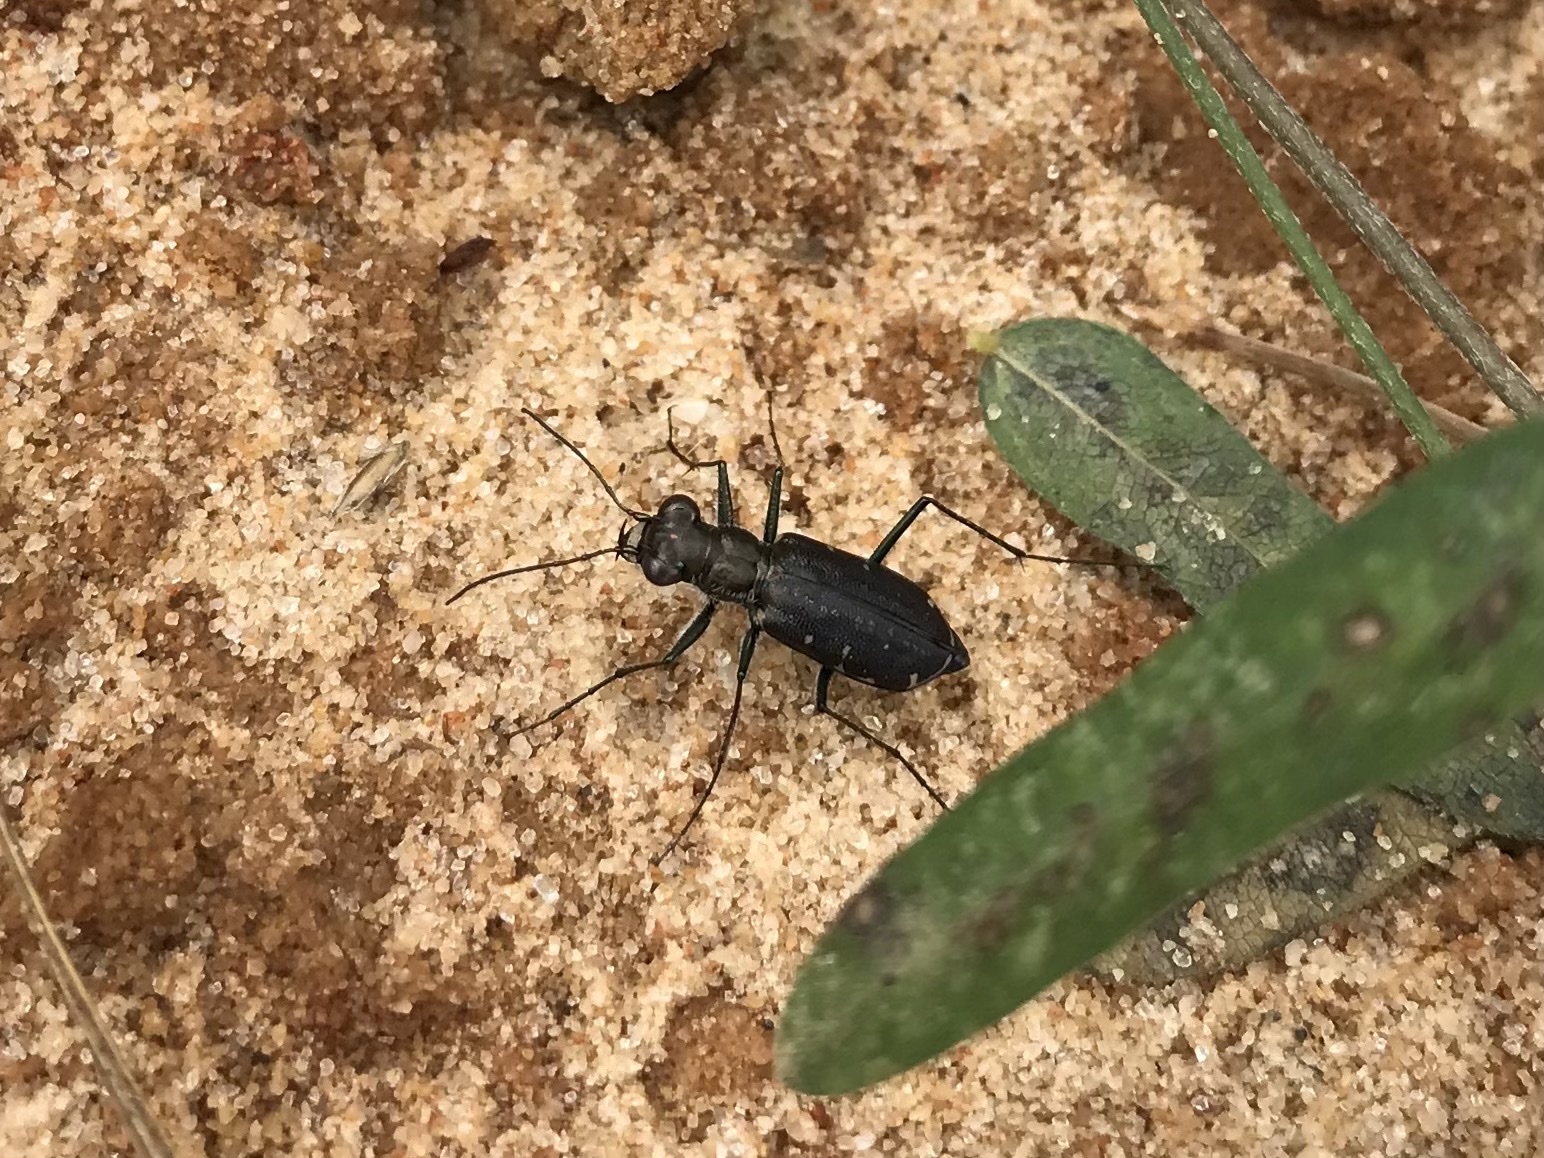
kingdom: Animalia
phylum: Arthropoda
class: Insecta
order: Coleoptera
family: Carabidae
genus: Cicindela
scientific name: Cicindela punctulata
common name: Punctured tiger beetle
